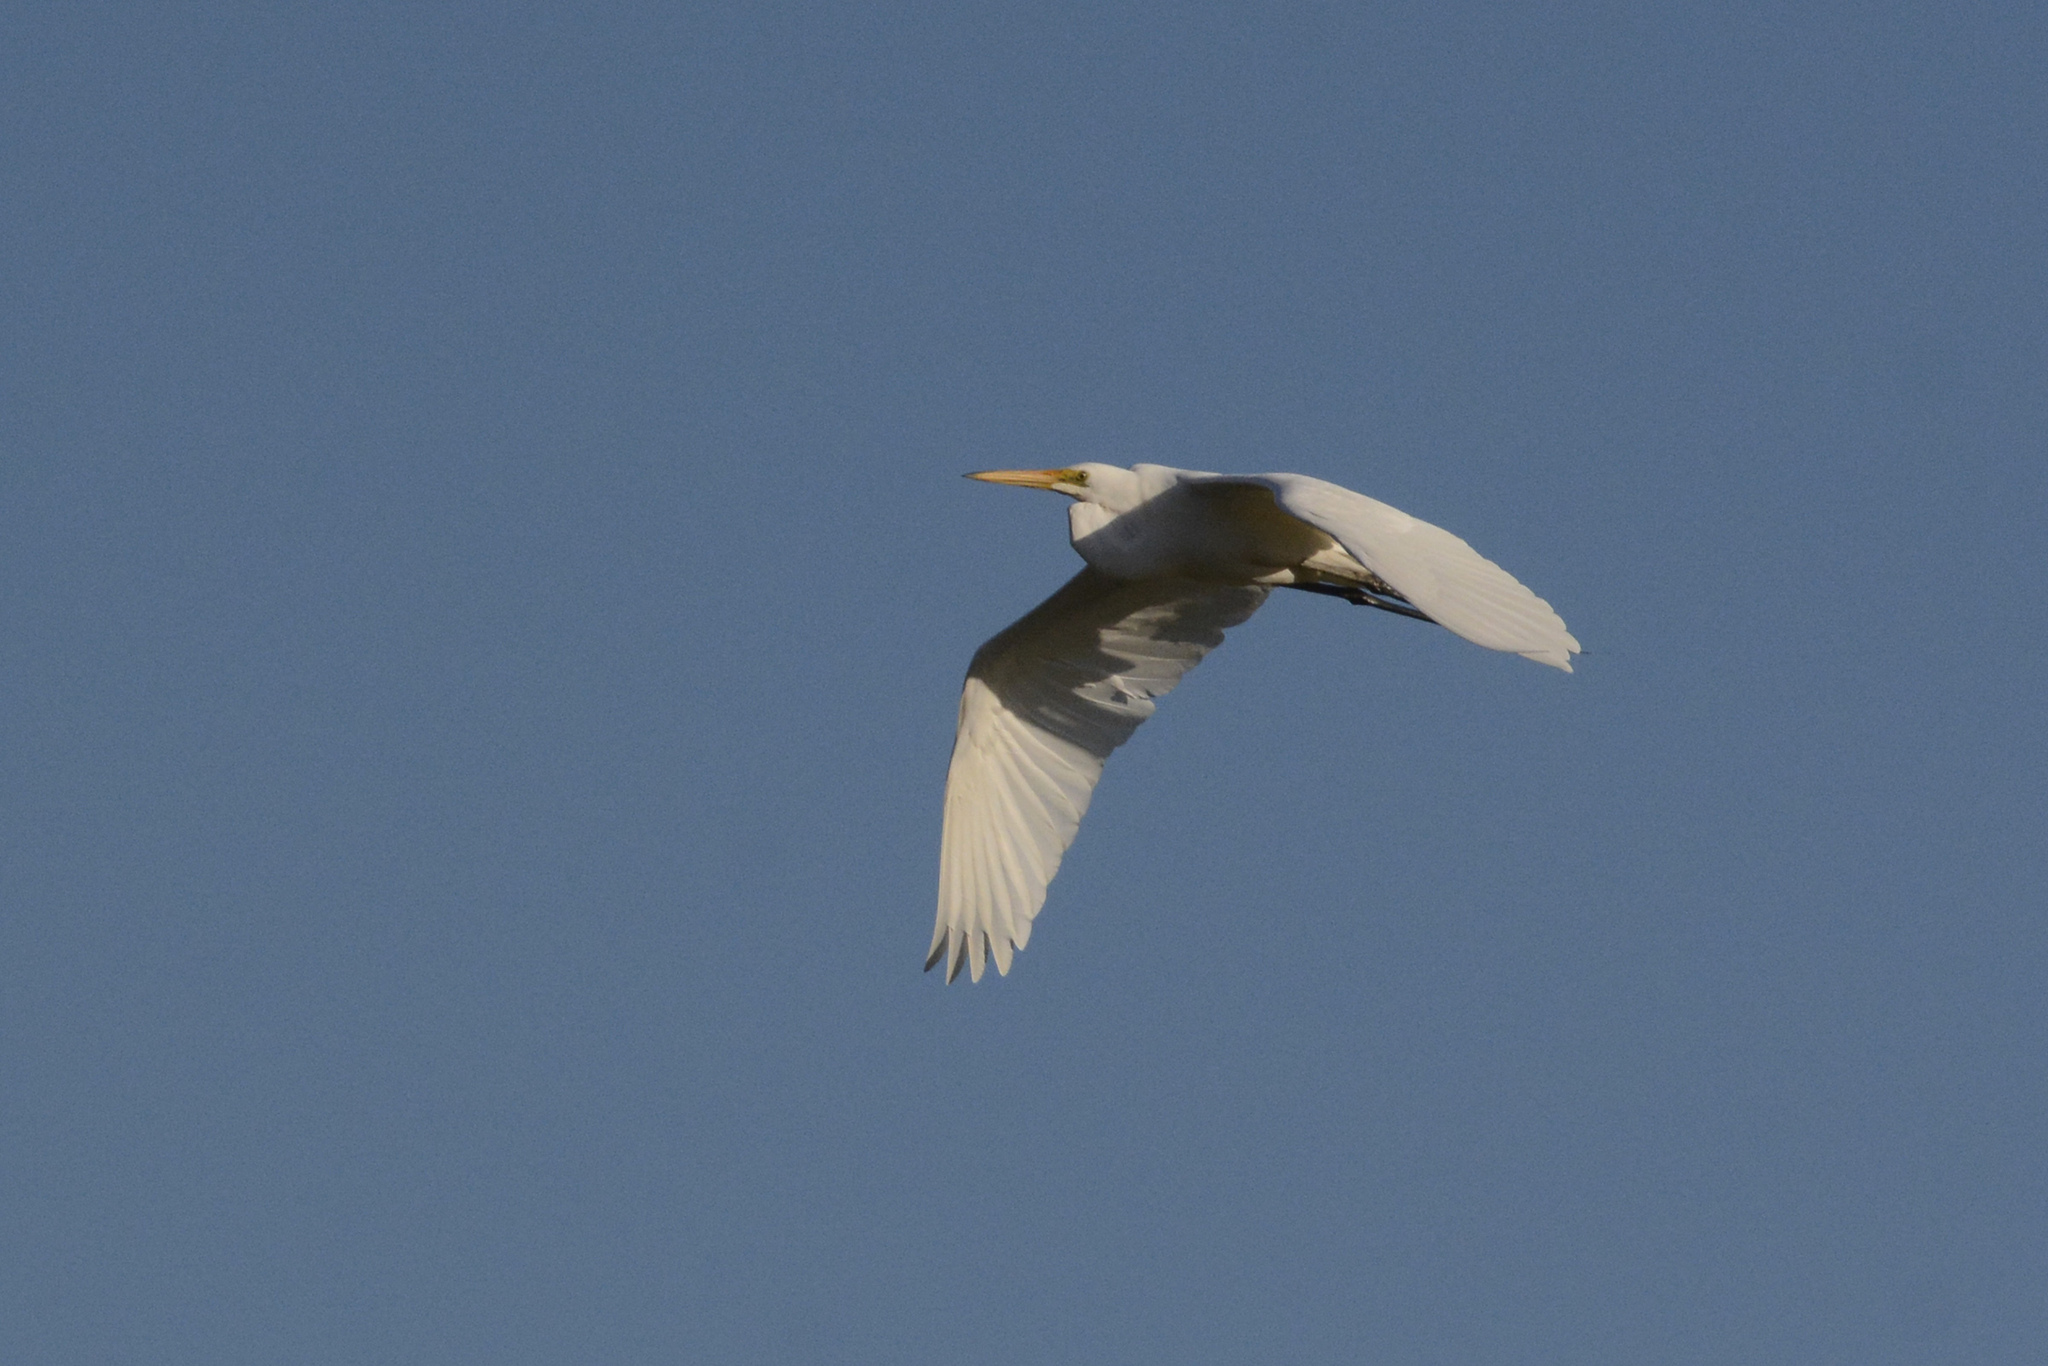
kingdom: Animalia
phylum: Chordata
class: Aves
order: Pelecaniformes
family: Ardeidae
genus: Ardea
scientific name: Ardea alba
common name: Great egret
